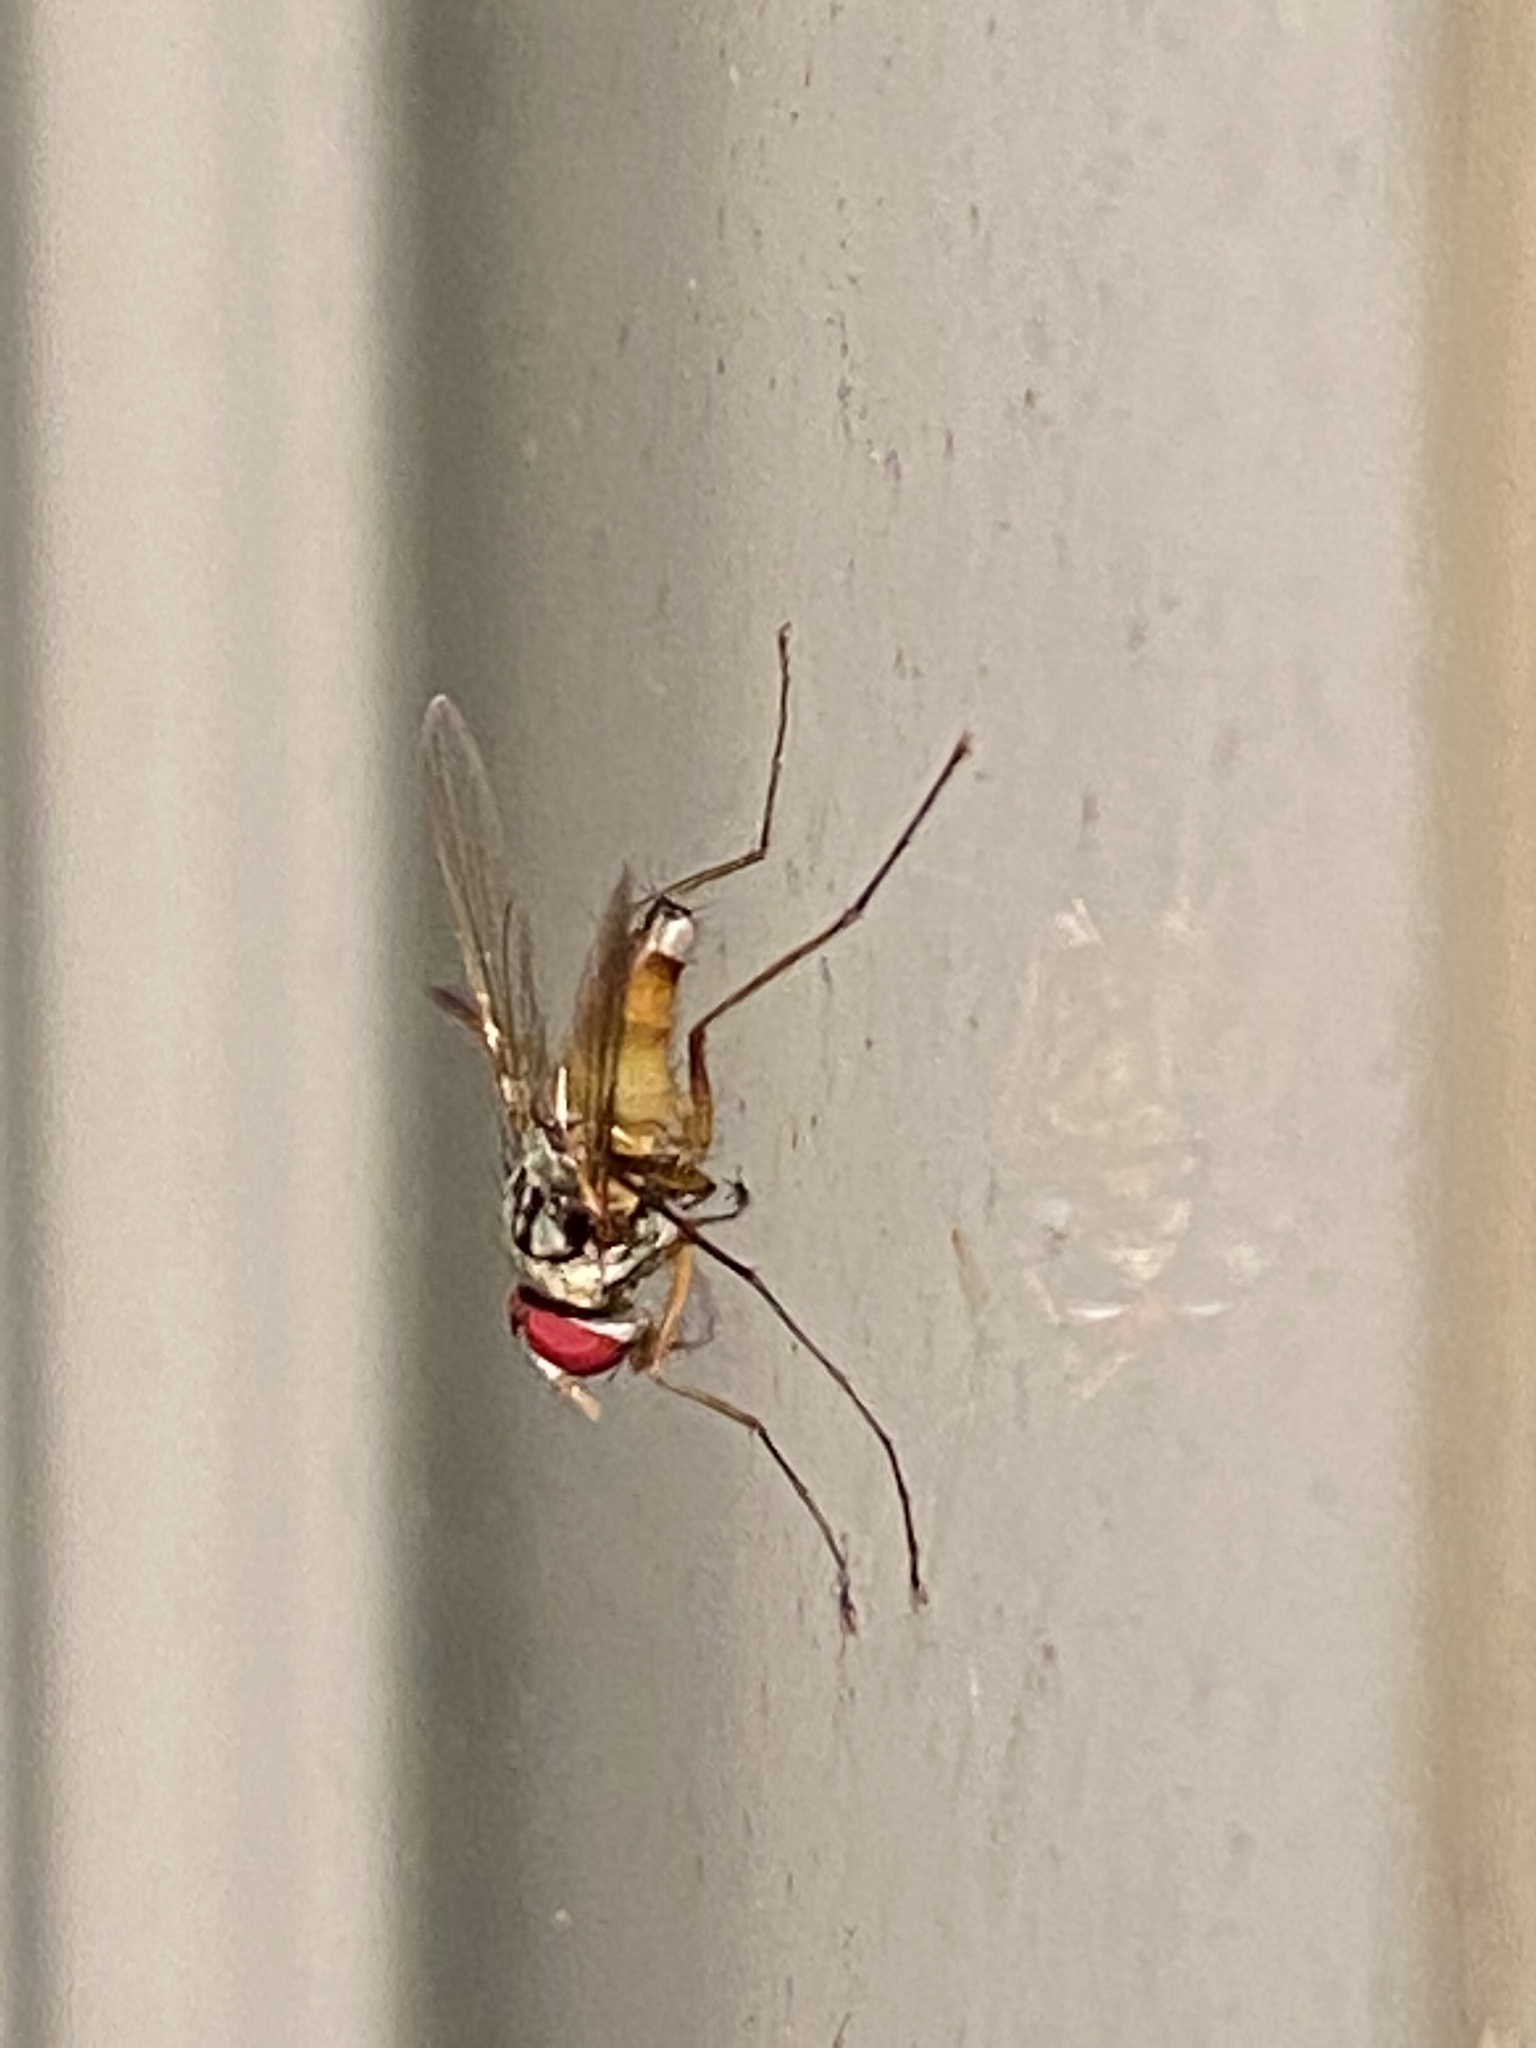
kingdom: Animalia
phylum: Arthropoda
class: Insecta
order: Diptera
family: Tachinidae
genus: Cholomyia
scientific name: Cholomyia inaequipes
